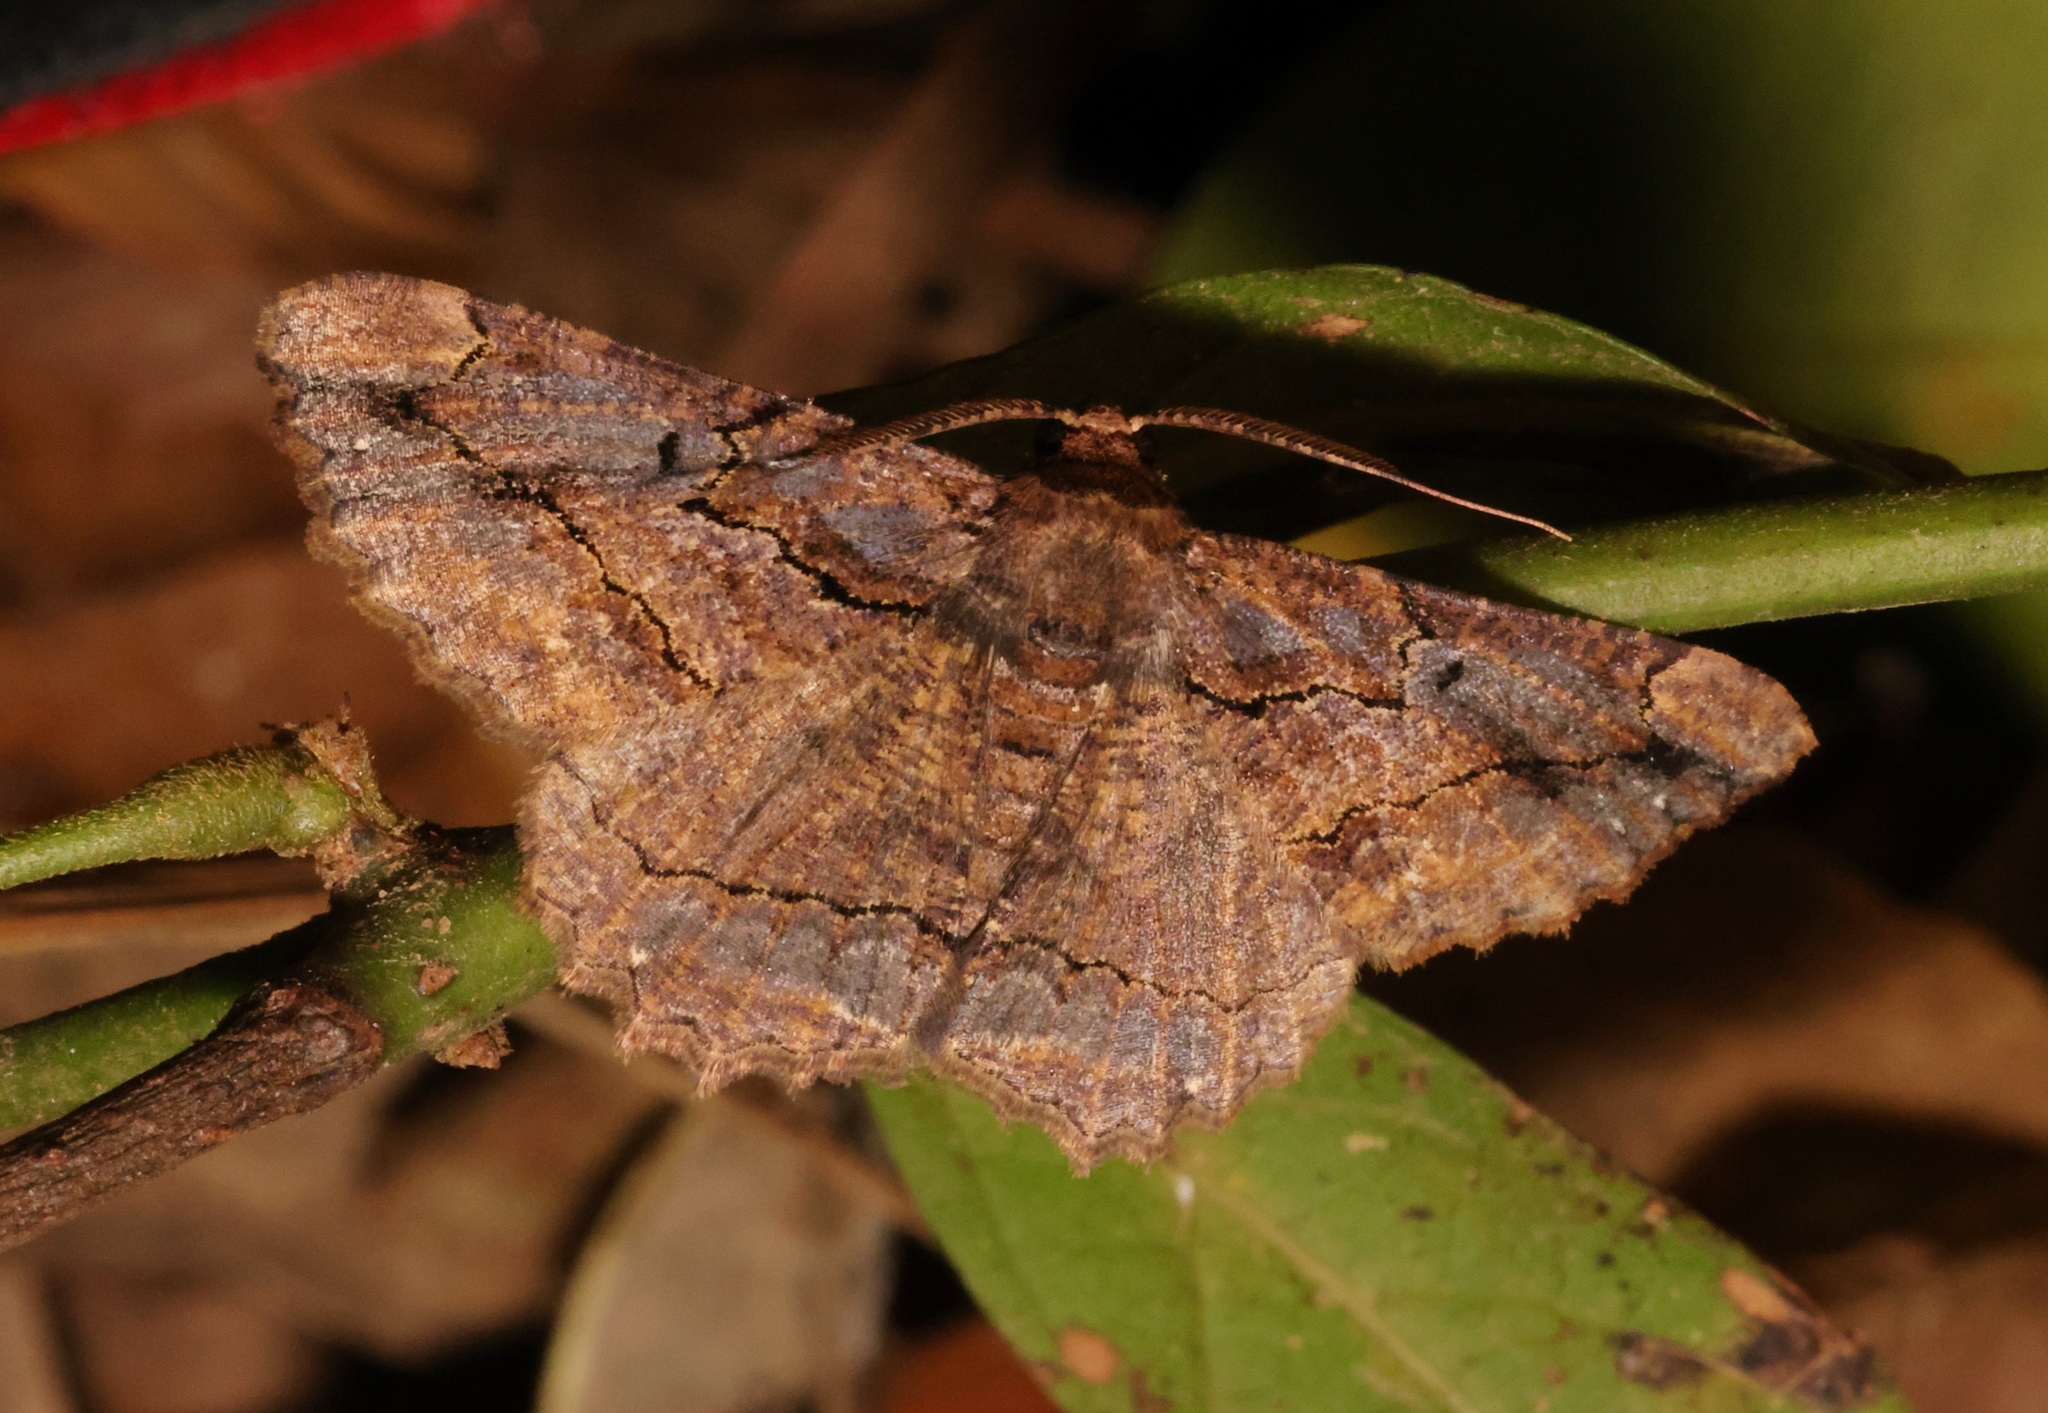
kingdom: Animalia
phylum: Arthropoda
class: Insecta
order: Lepidoptera
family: Geometridae
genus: Dasyboarmia
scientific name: Dasyboarmia subpilosa
